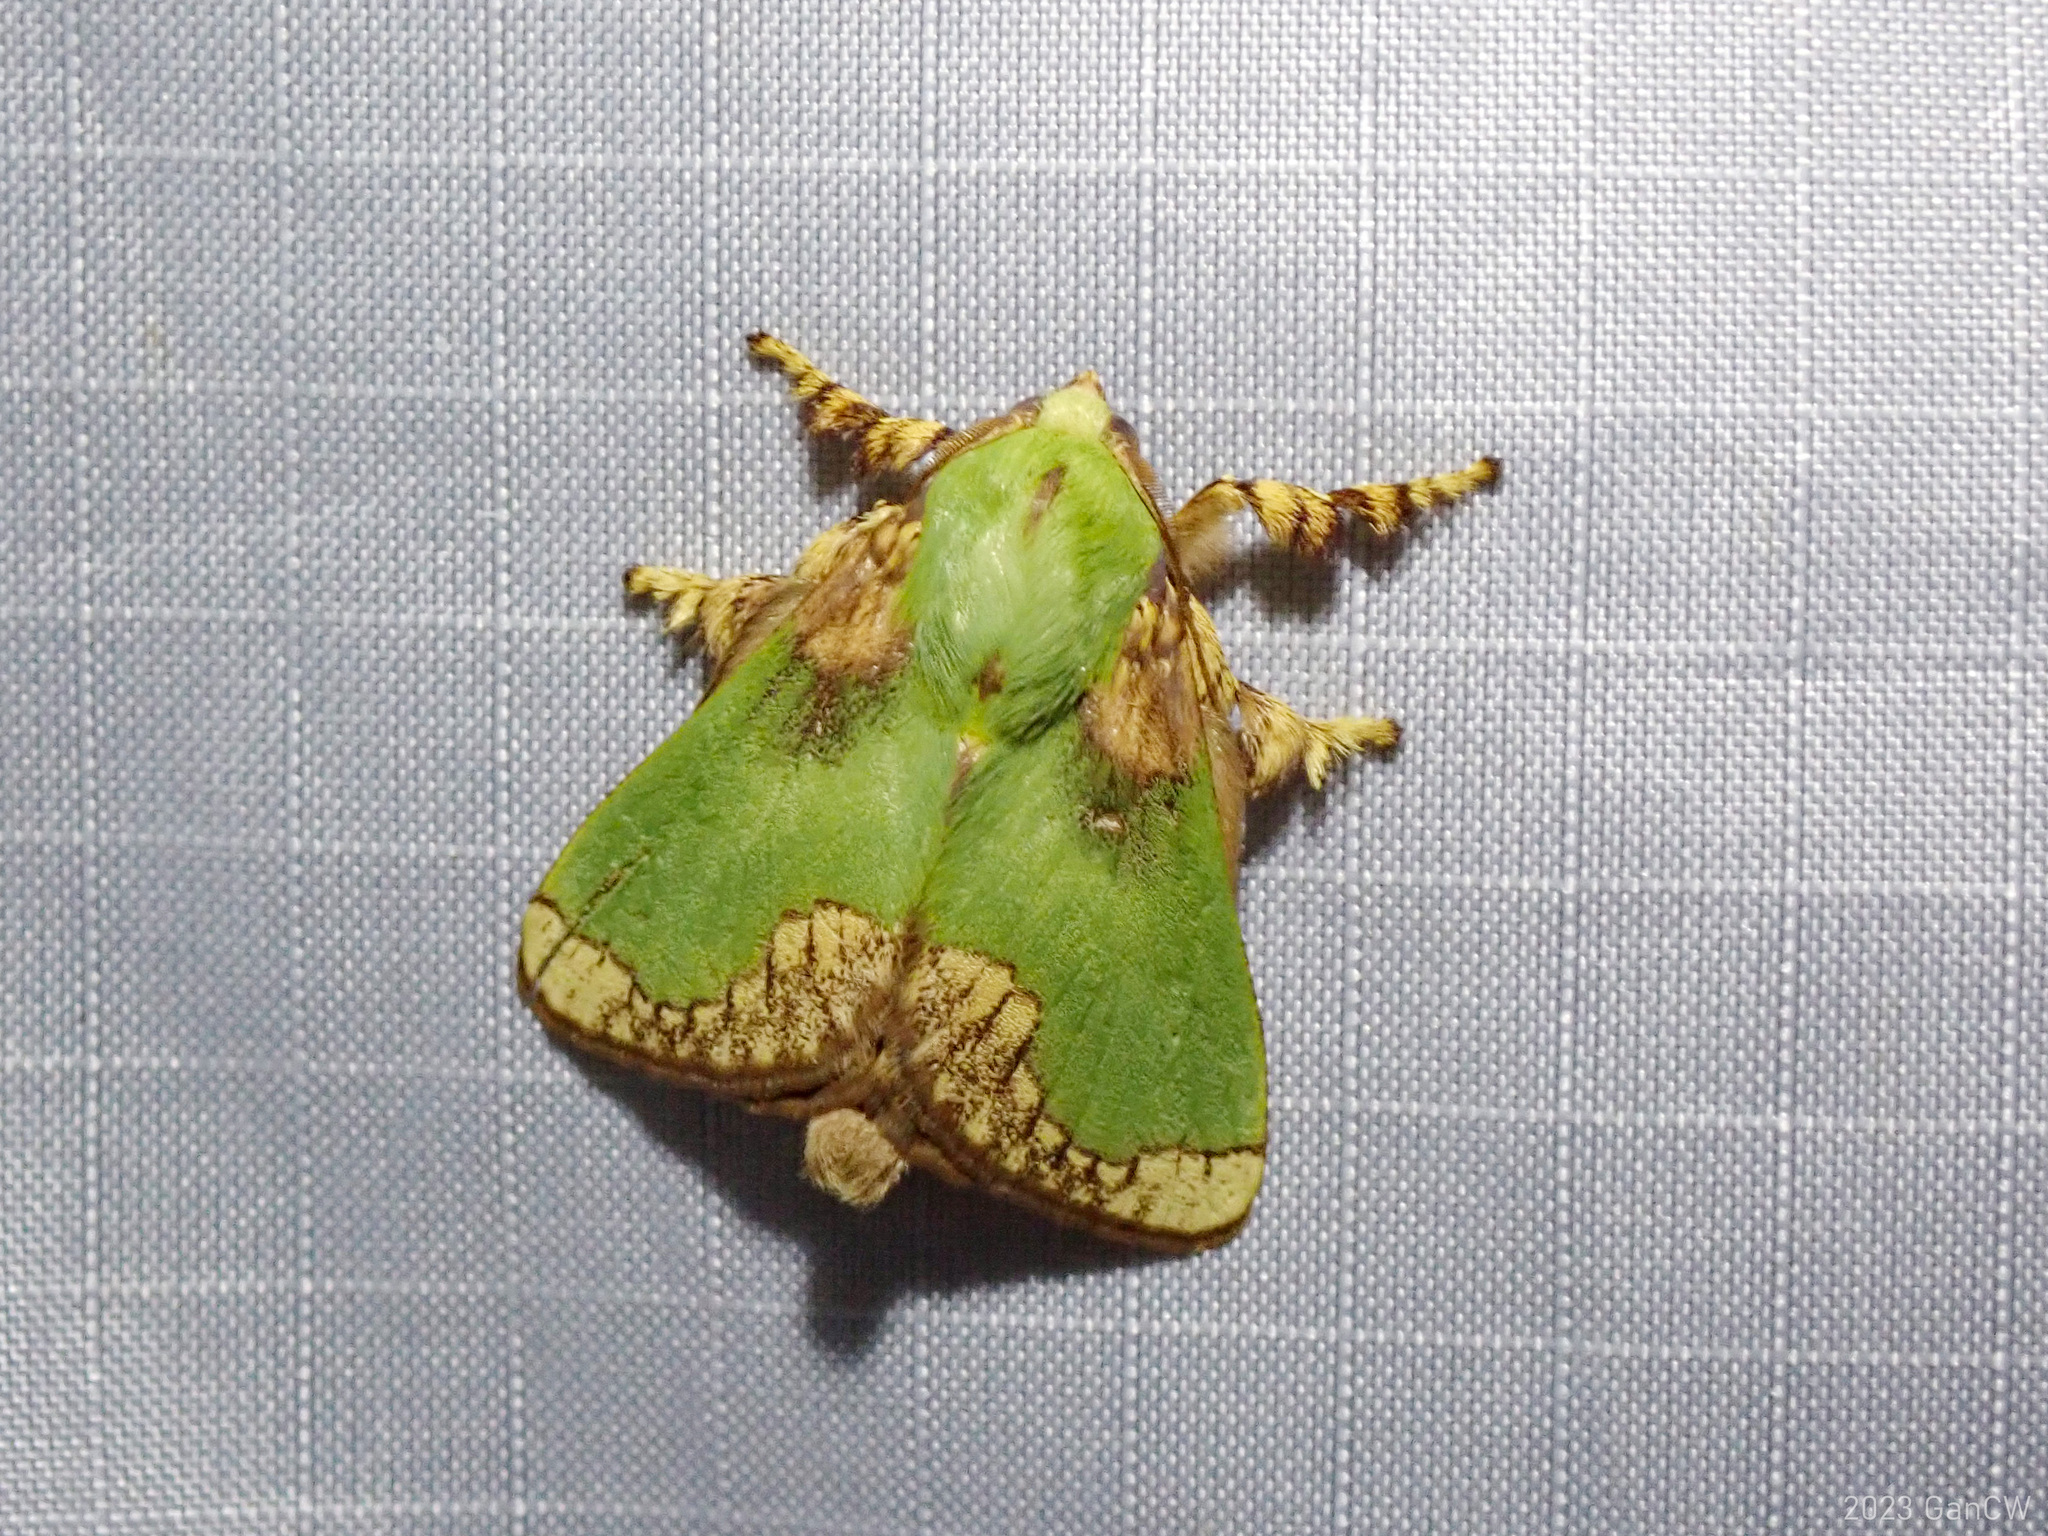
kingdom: Animalia
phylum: Arthropoda
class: Insecta
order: Lepidoptera
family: Limacodidae
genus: Parasa
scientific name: Parasa pastoralis
